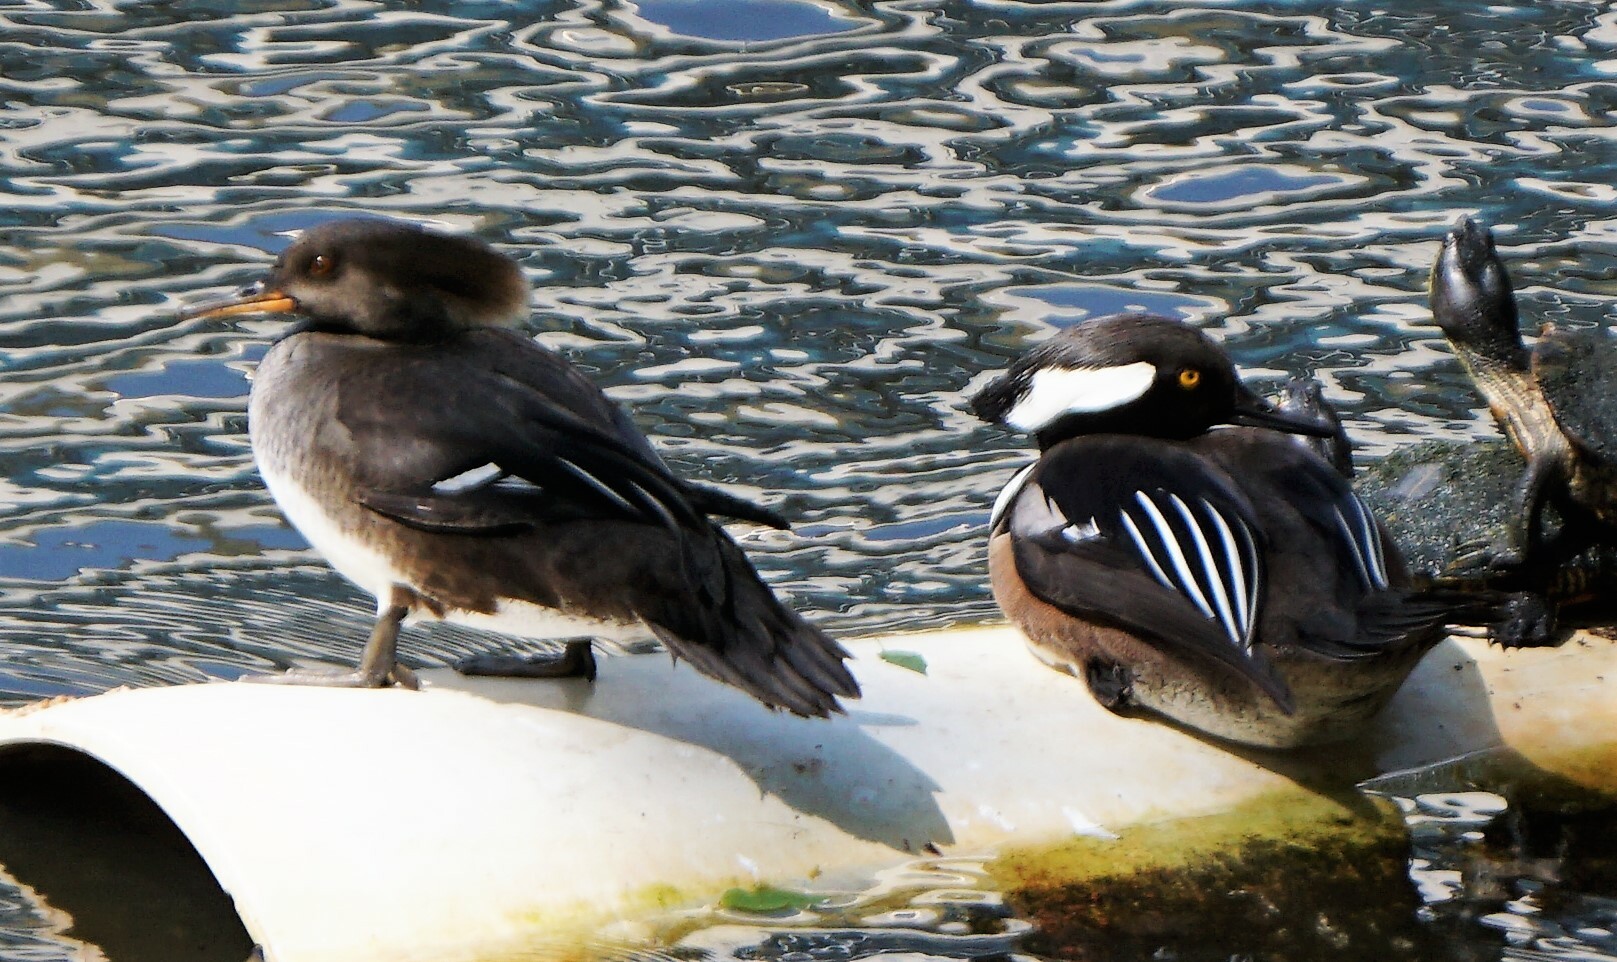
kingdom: Animalia
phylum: Chordata
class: Aves
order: Anseriformes
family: Anatidae
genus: Lophodytes
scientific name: Lophodytes cucullatus
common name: Hooded merganser
